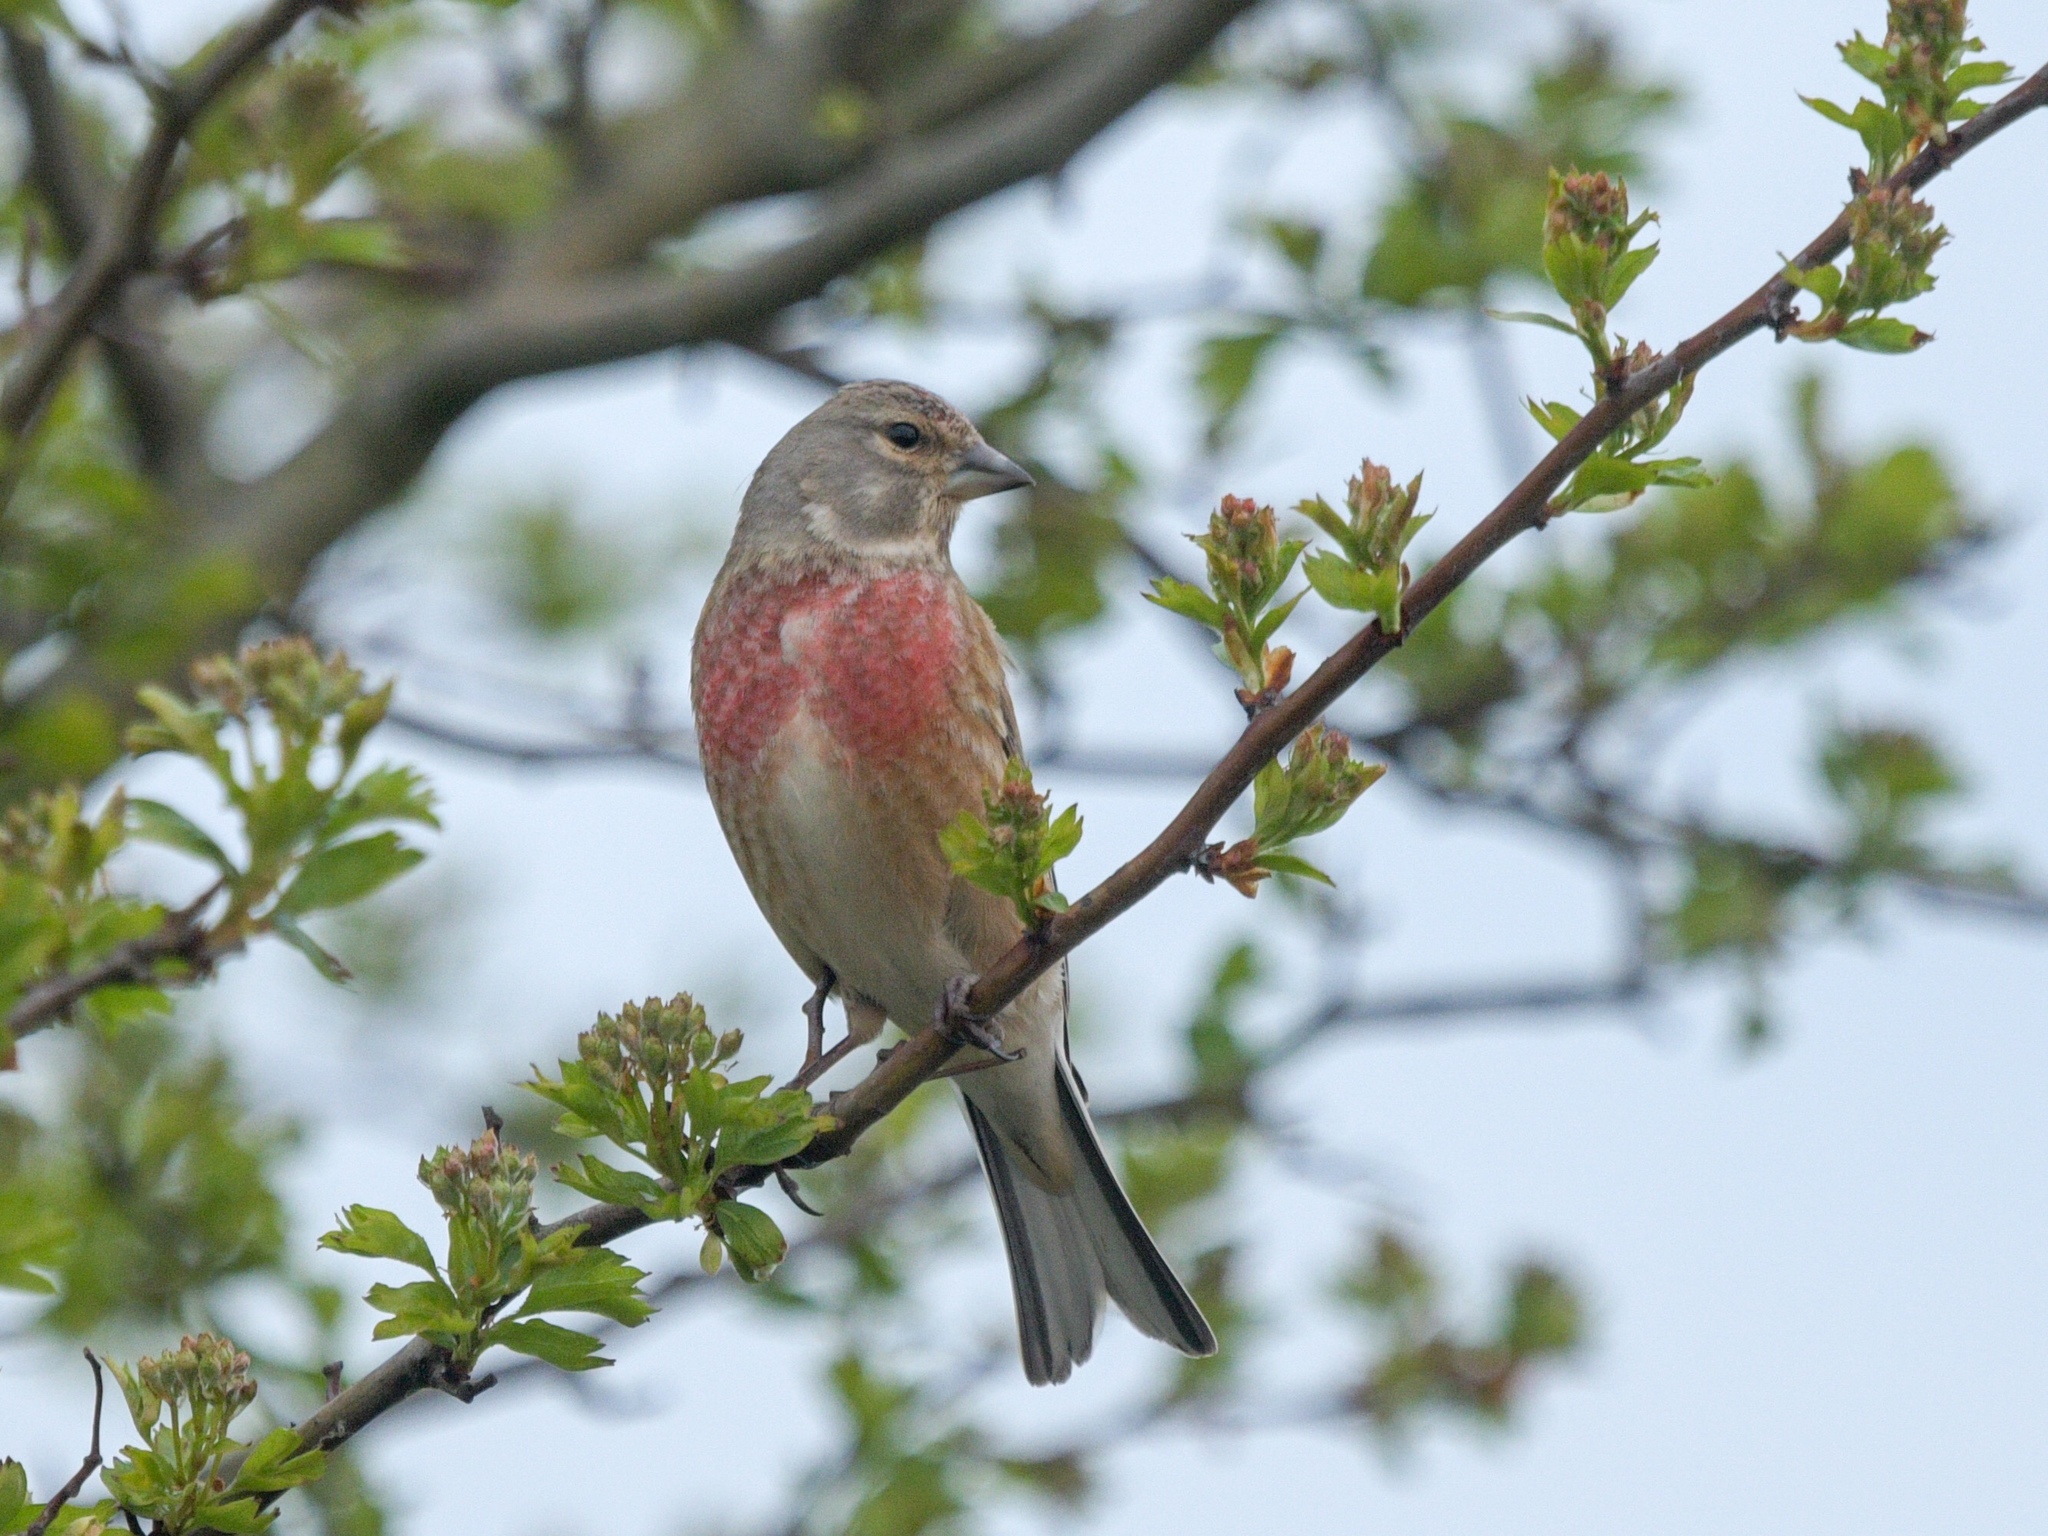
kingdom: Animalia
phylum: Chordata
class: Aves
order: Passeriformes
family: Fringillidae
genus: Linaria
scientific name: Linaria cannabina
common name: Common linnet
